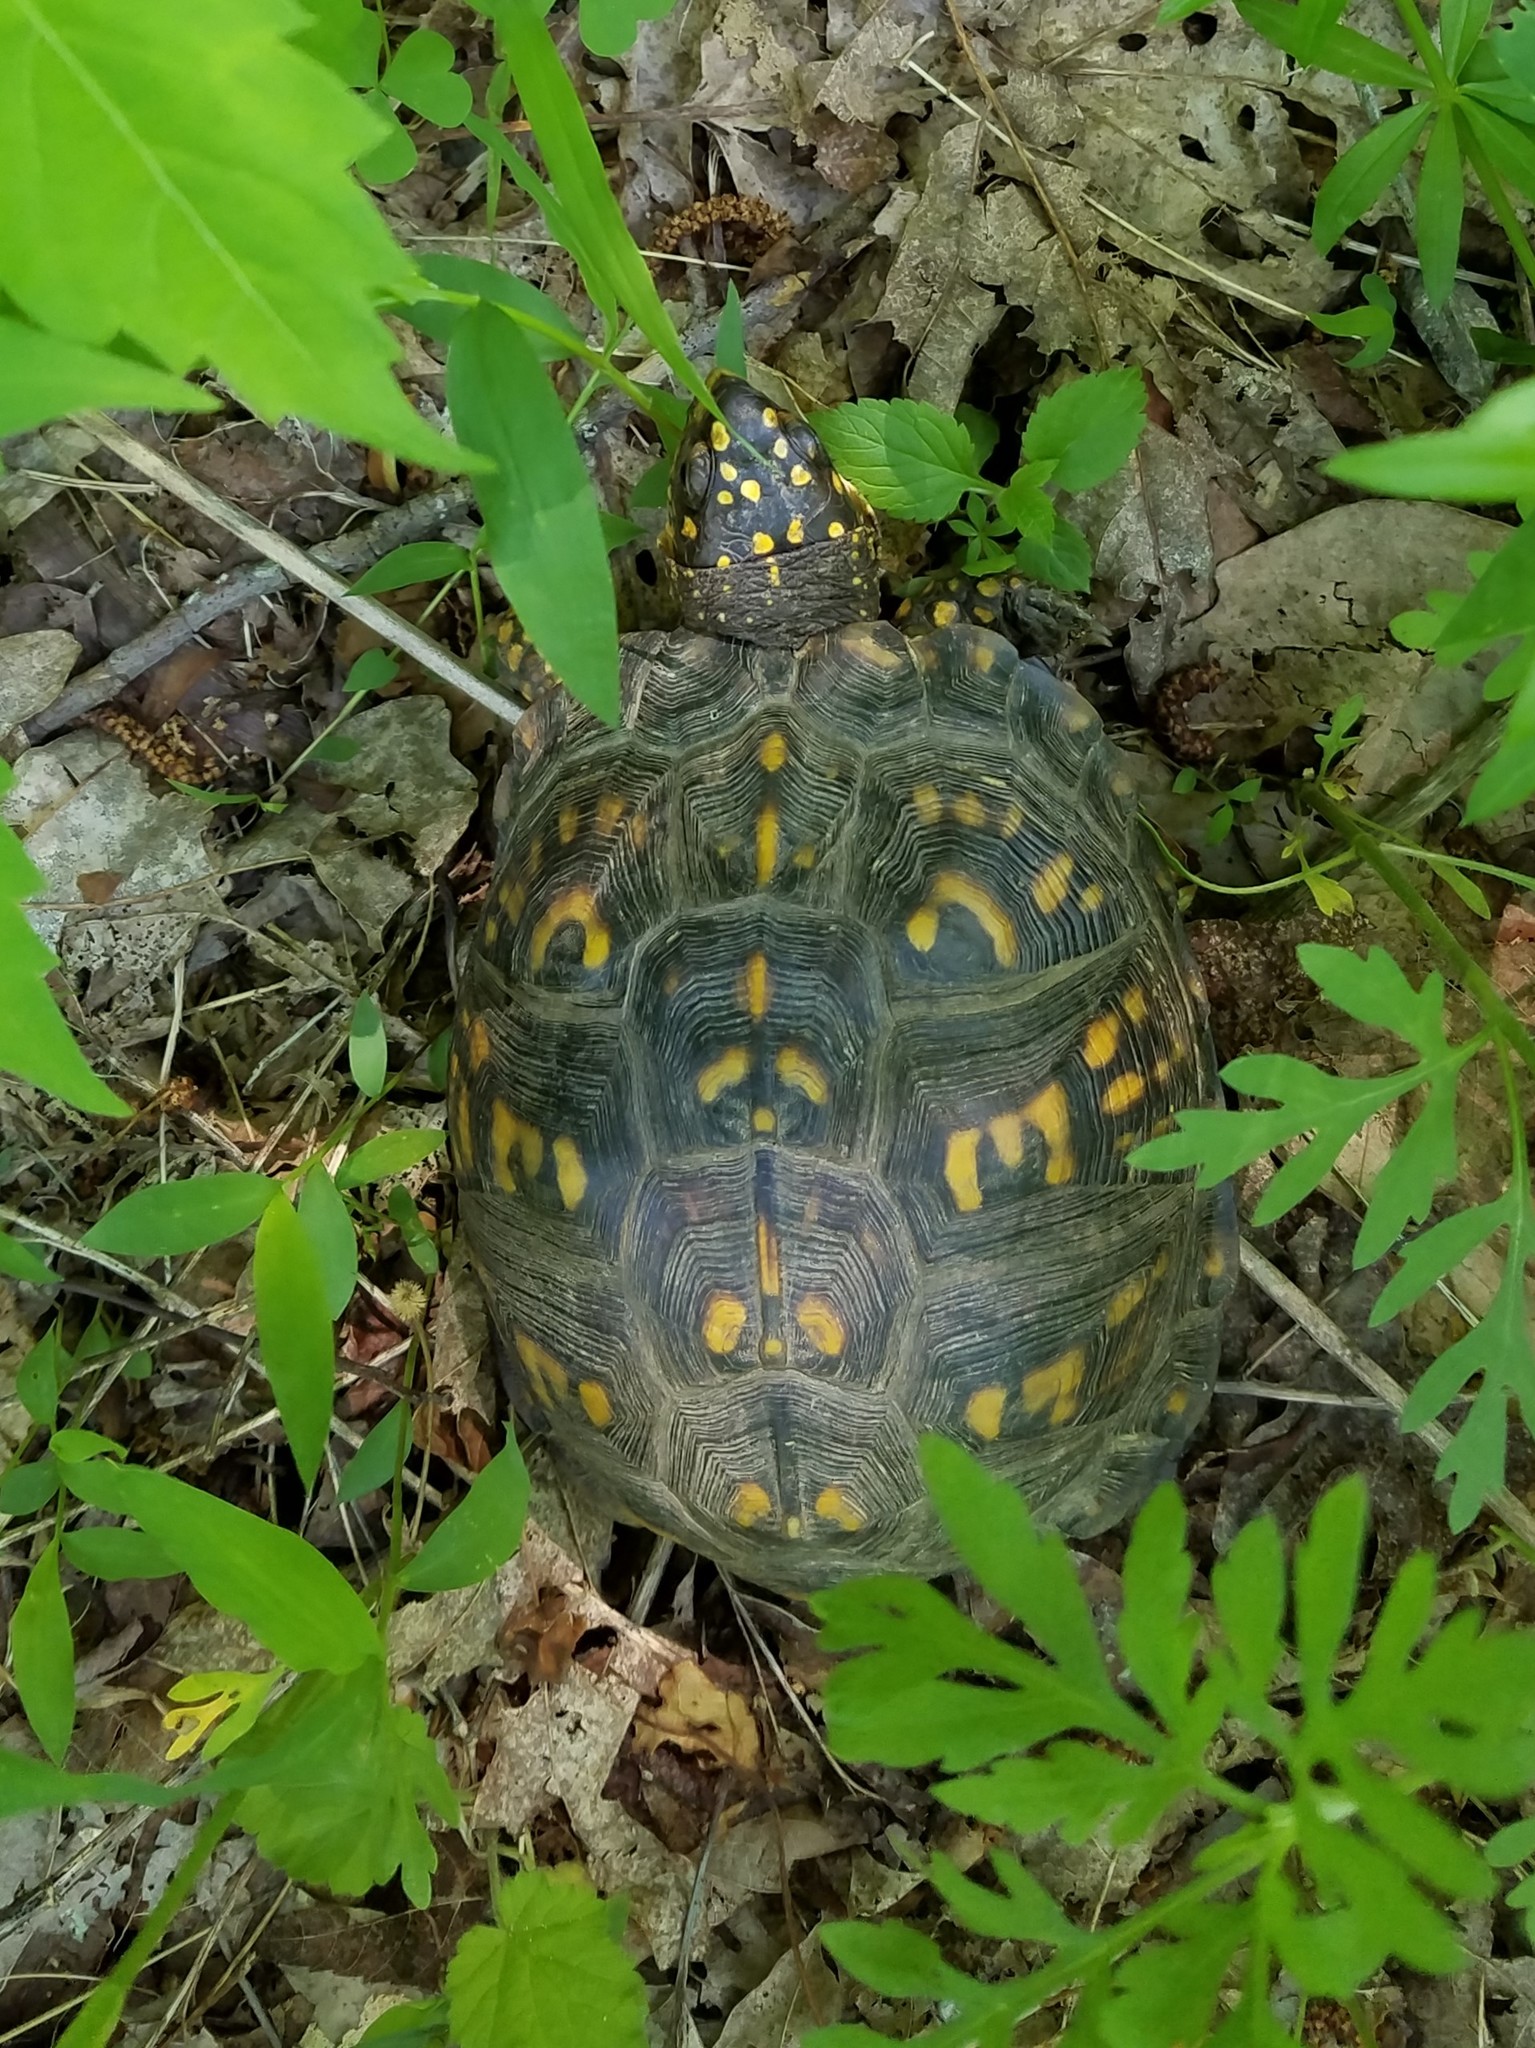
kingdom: Animalia
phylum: Chordata
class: Testudines
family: Emydidae
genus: Terrapene
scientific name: Terrapene carolina
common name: Common box turtle
